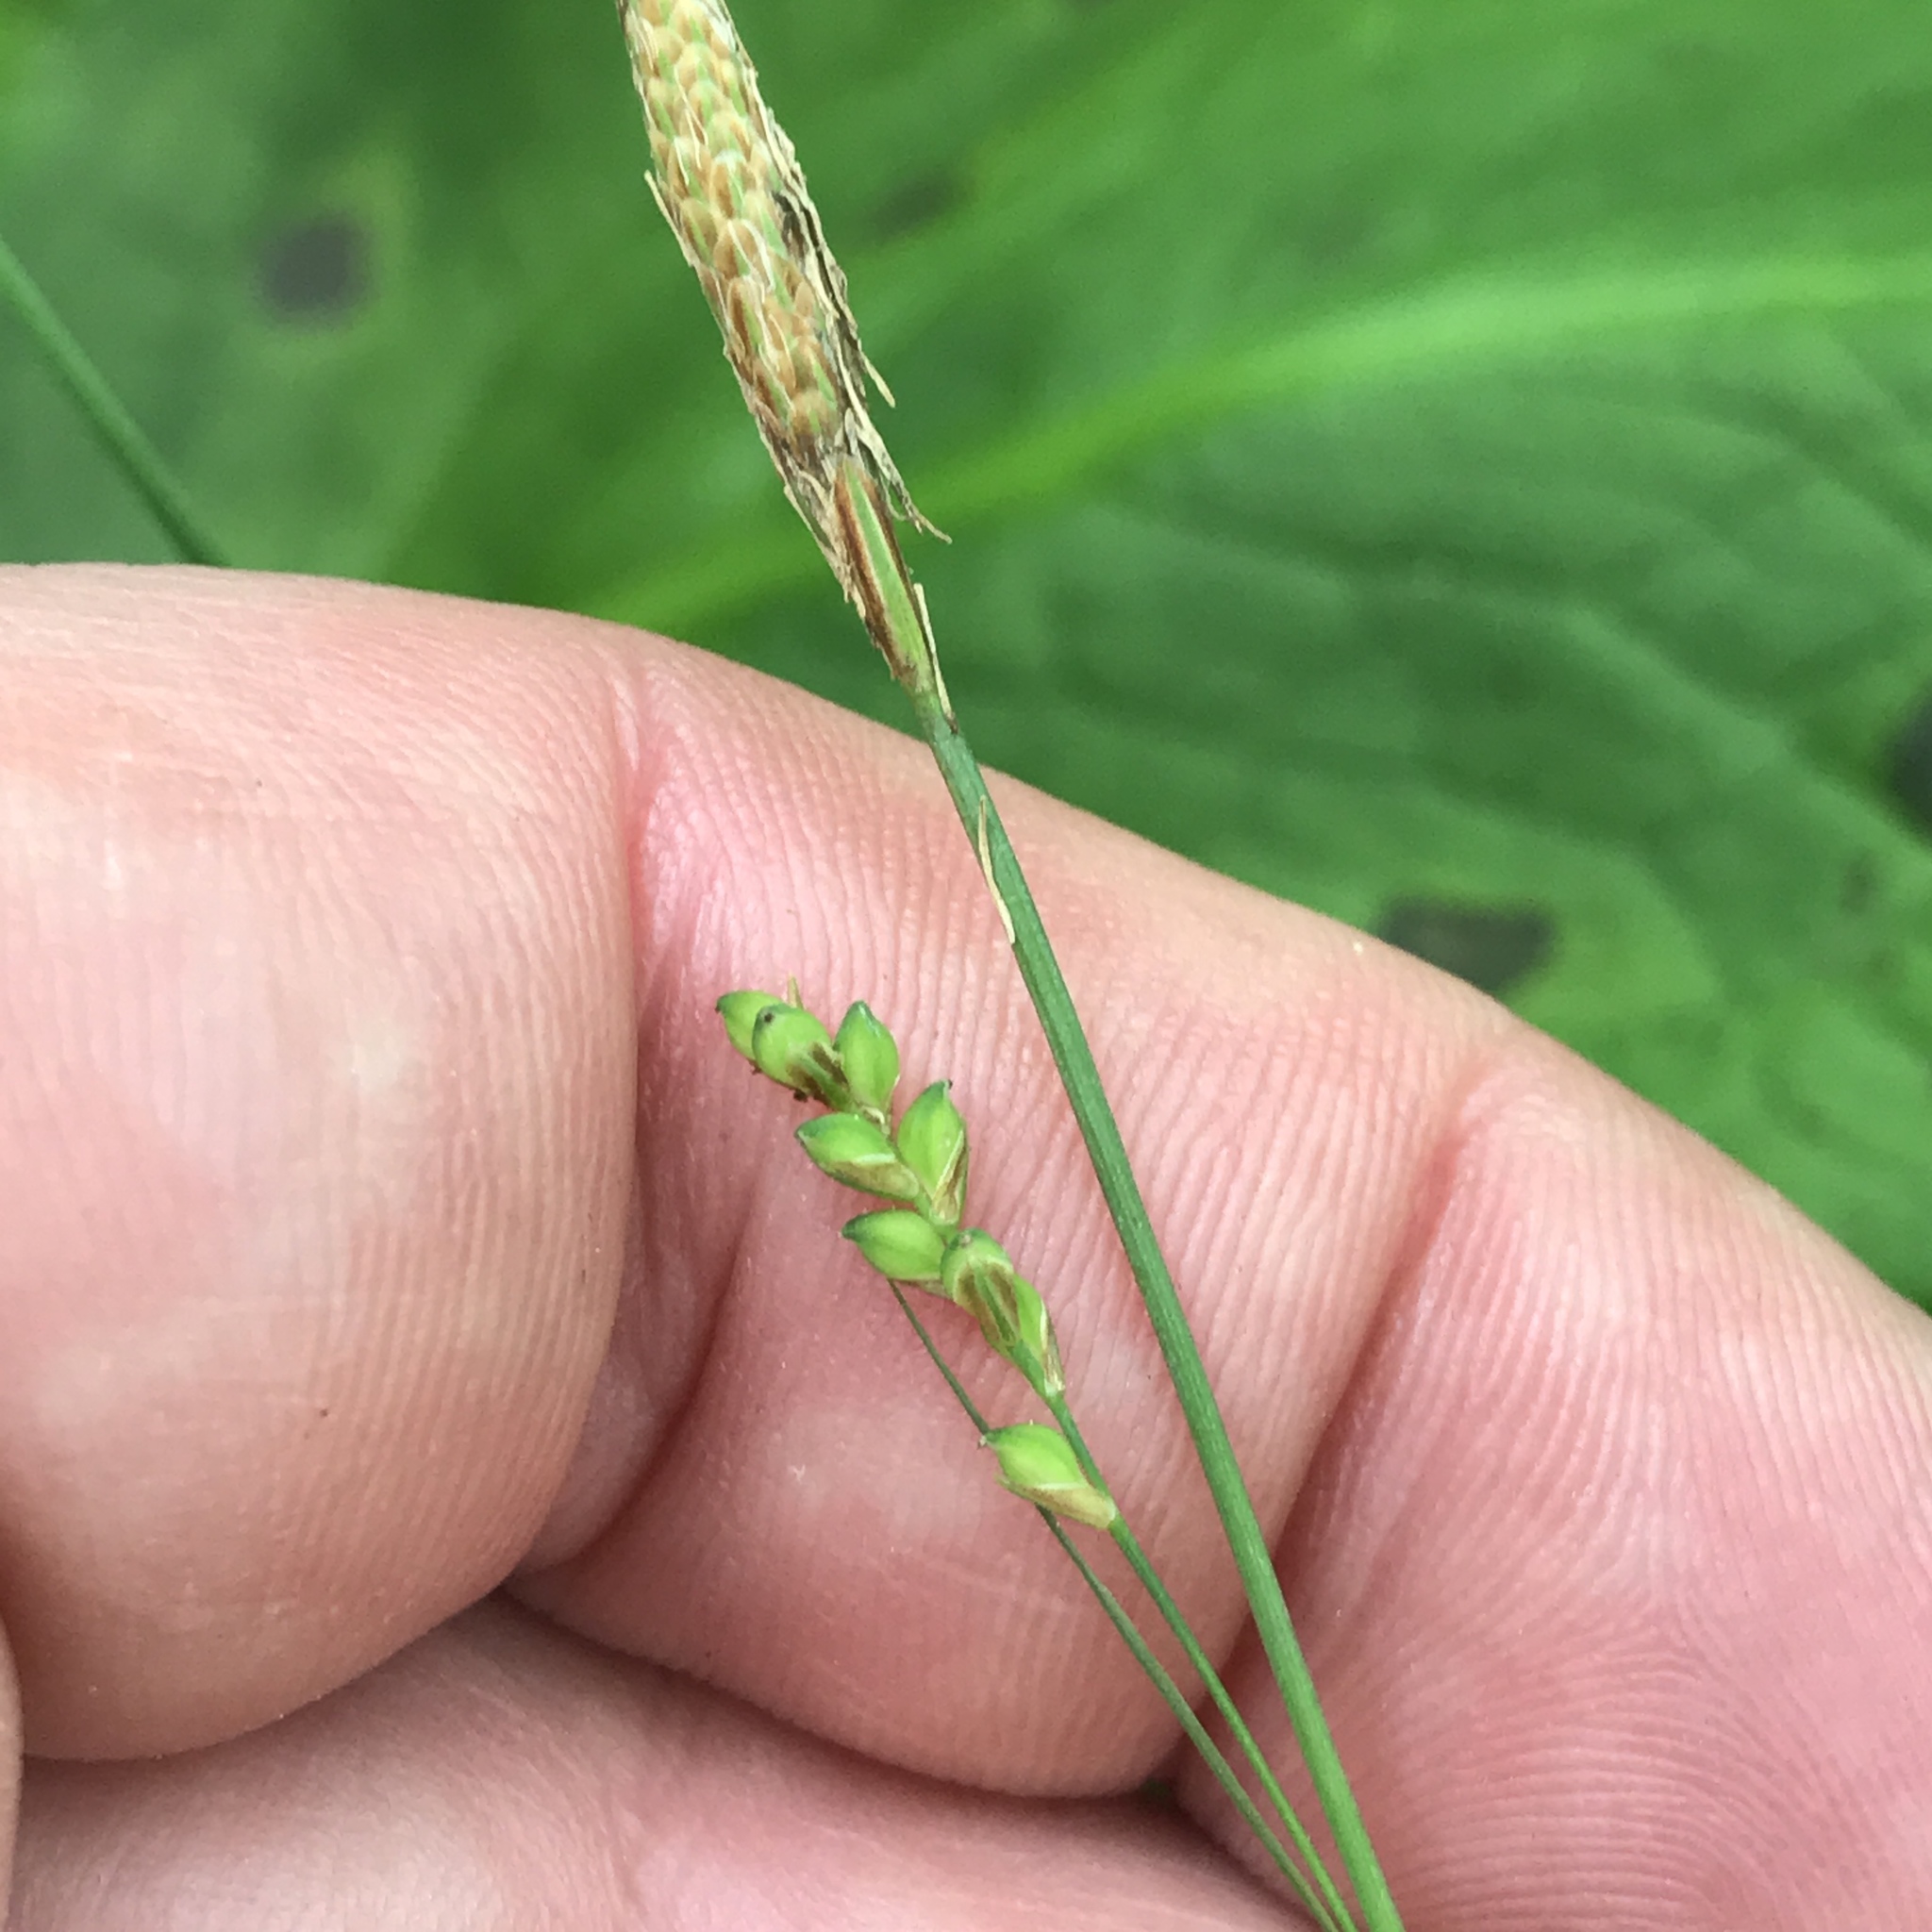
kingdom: Plantae
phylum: Tracheophyta
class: Liliopsida
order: Poales
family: Cyperaceae
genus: Carex
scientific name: Carex woodii
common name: Wood's sedge
